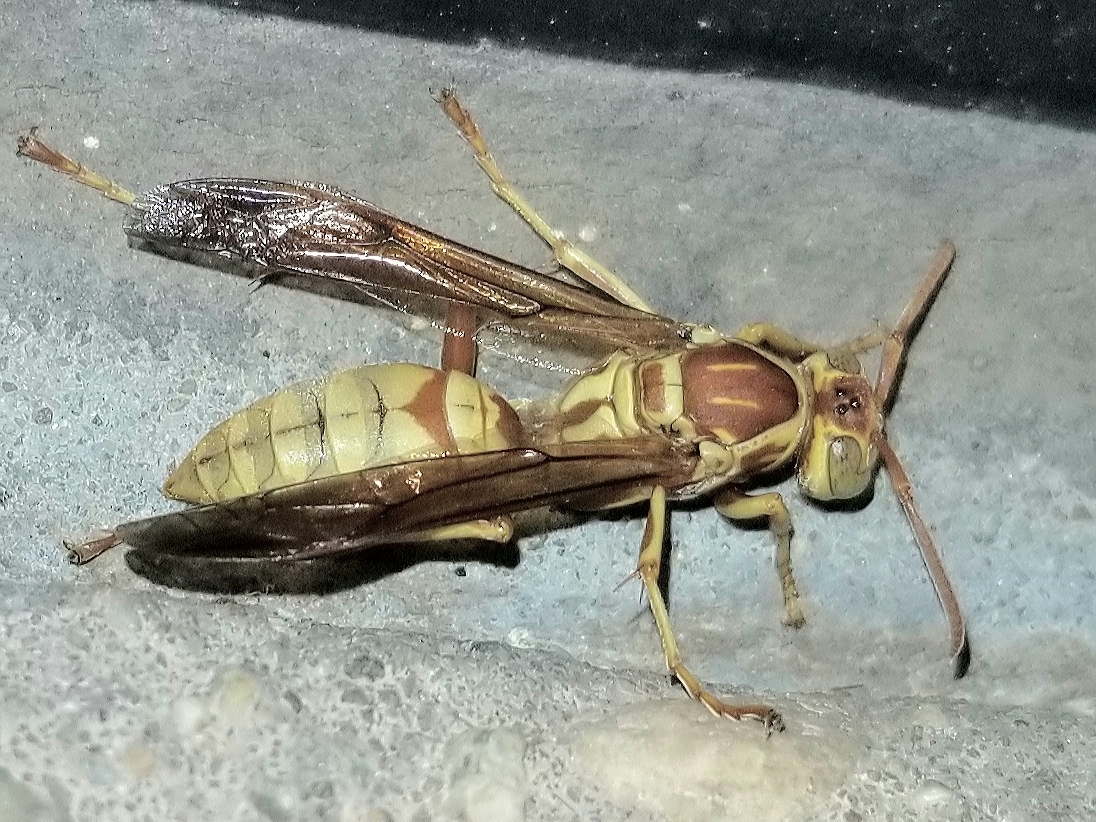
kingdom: Animalia
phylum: Arthropoda
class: Insecta
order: Hymenoptera
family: Eumenidae
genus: Polistes
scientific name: Polistes aurifer
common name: Paper wasp
